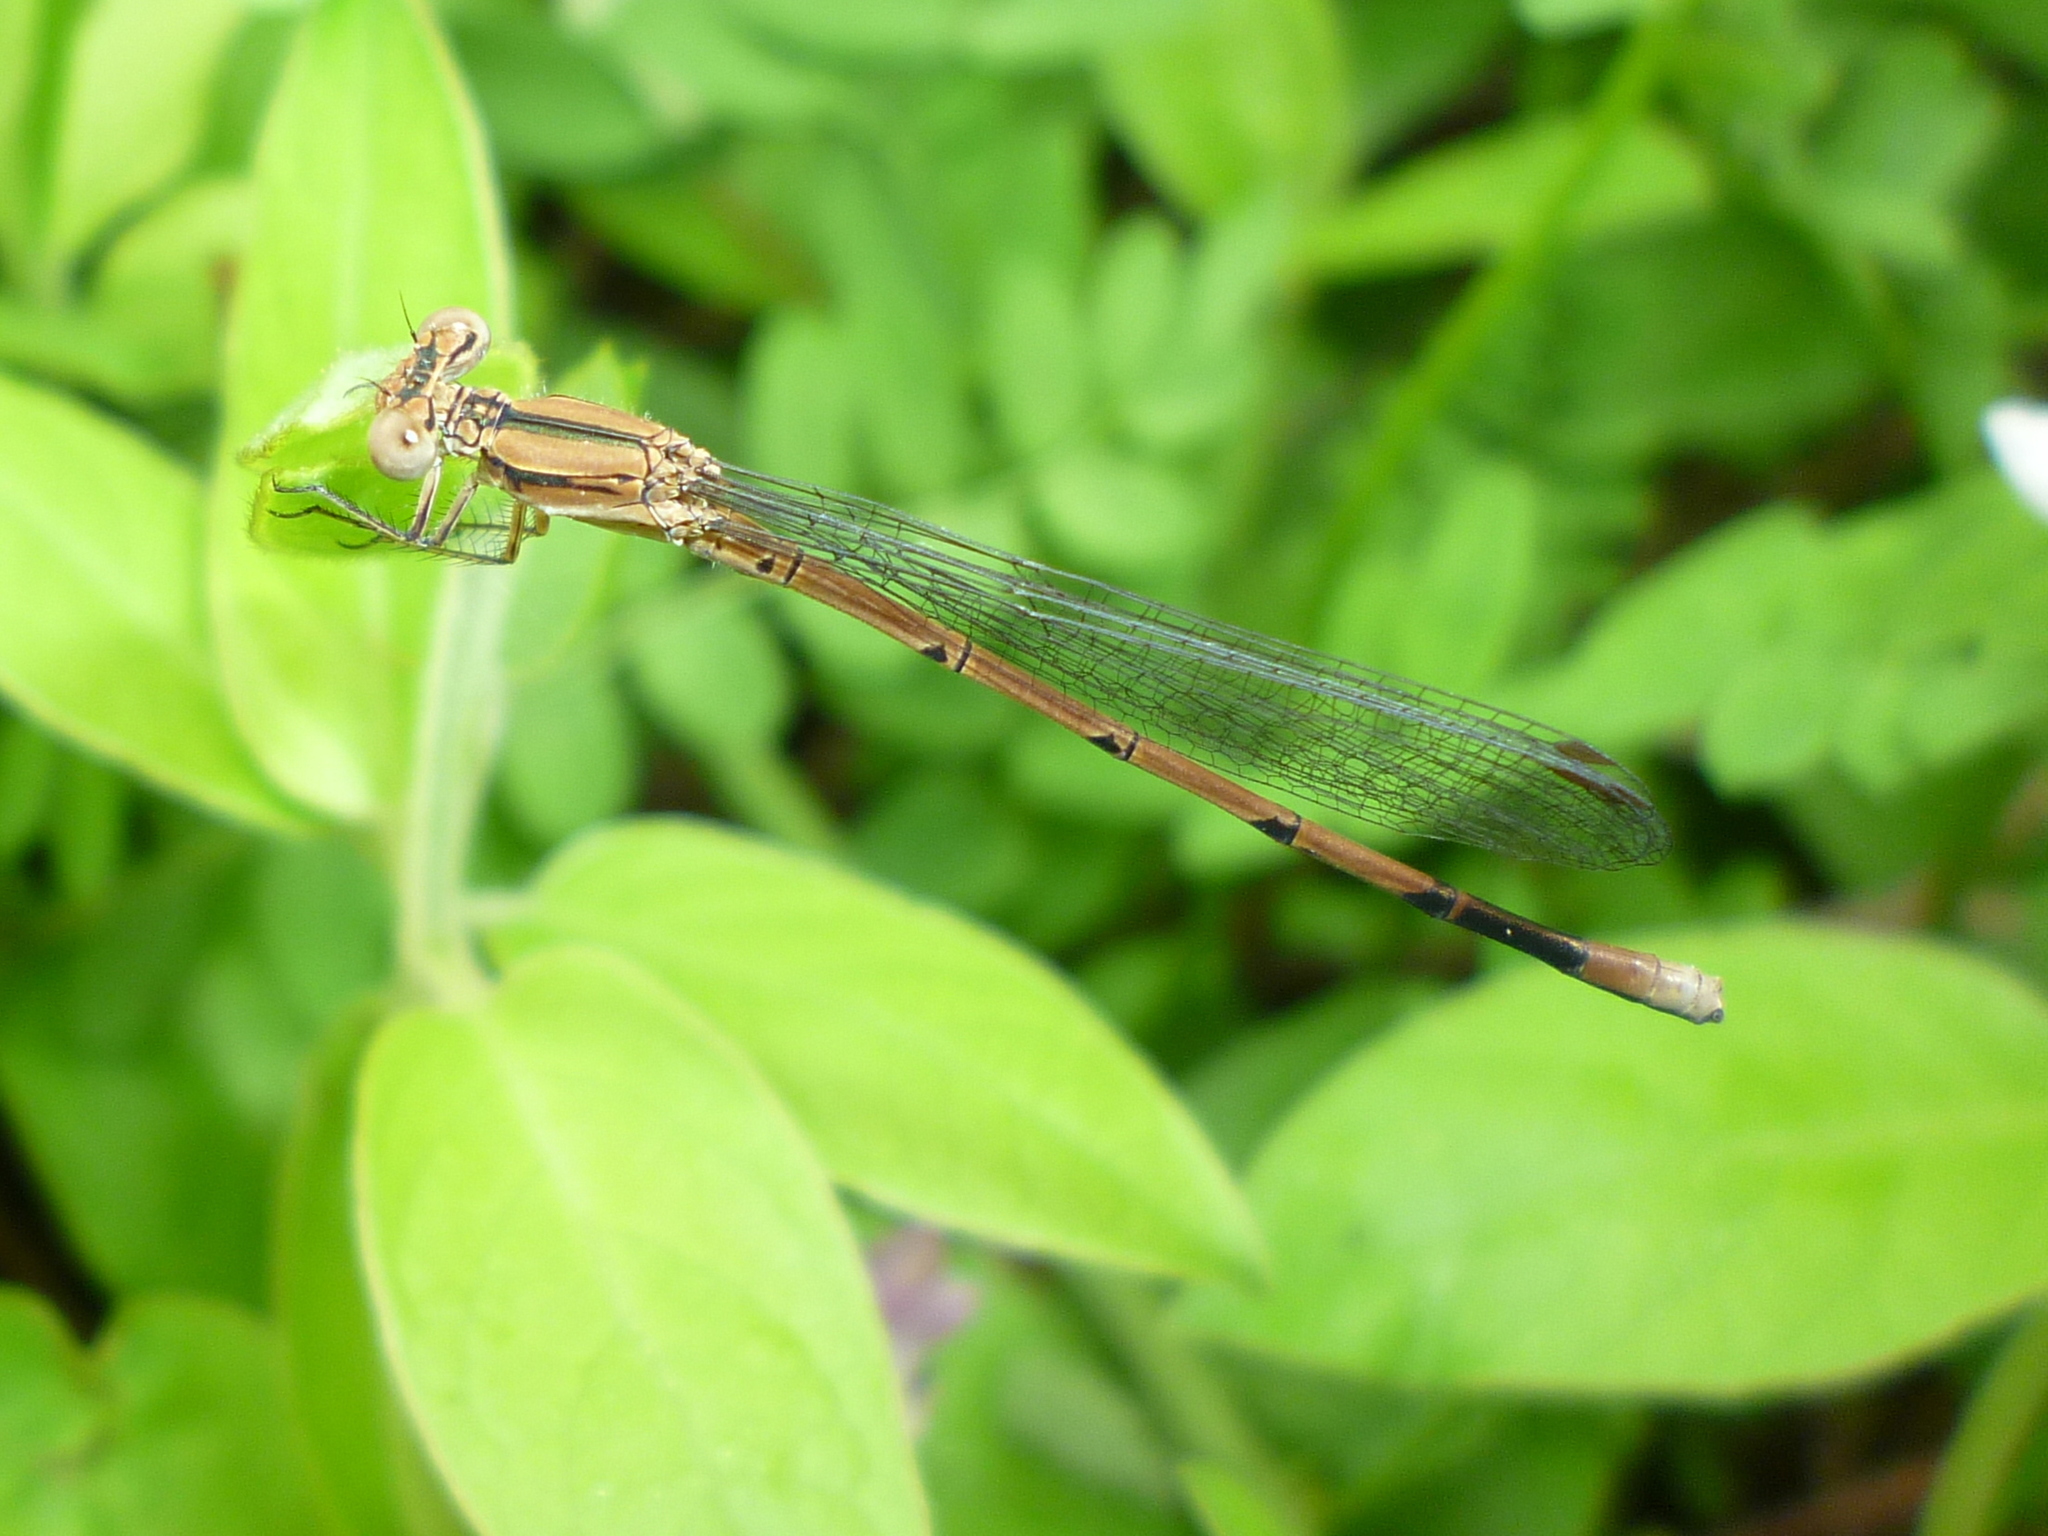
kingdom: Animalia
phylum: Arthropoda
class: Insecta
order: Odonata
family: Coenagrionidae
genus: Argia
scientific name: Argia fumipennis
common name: Variable dancer
